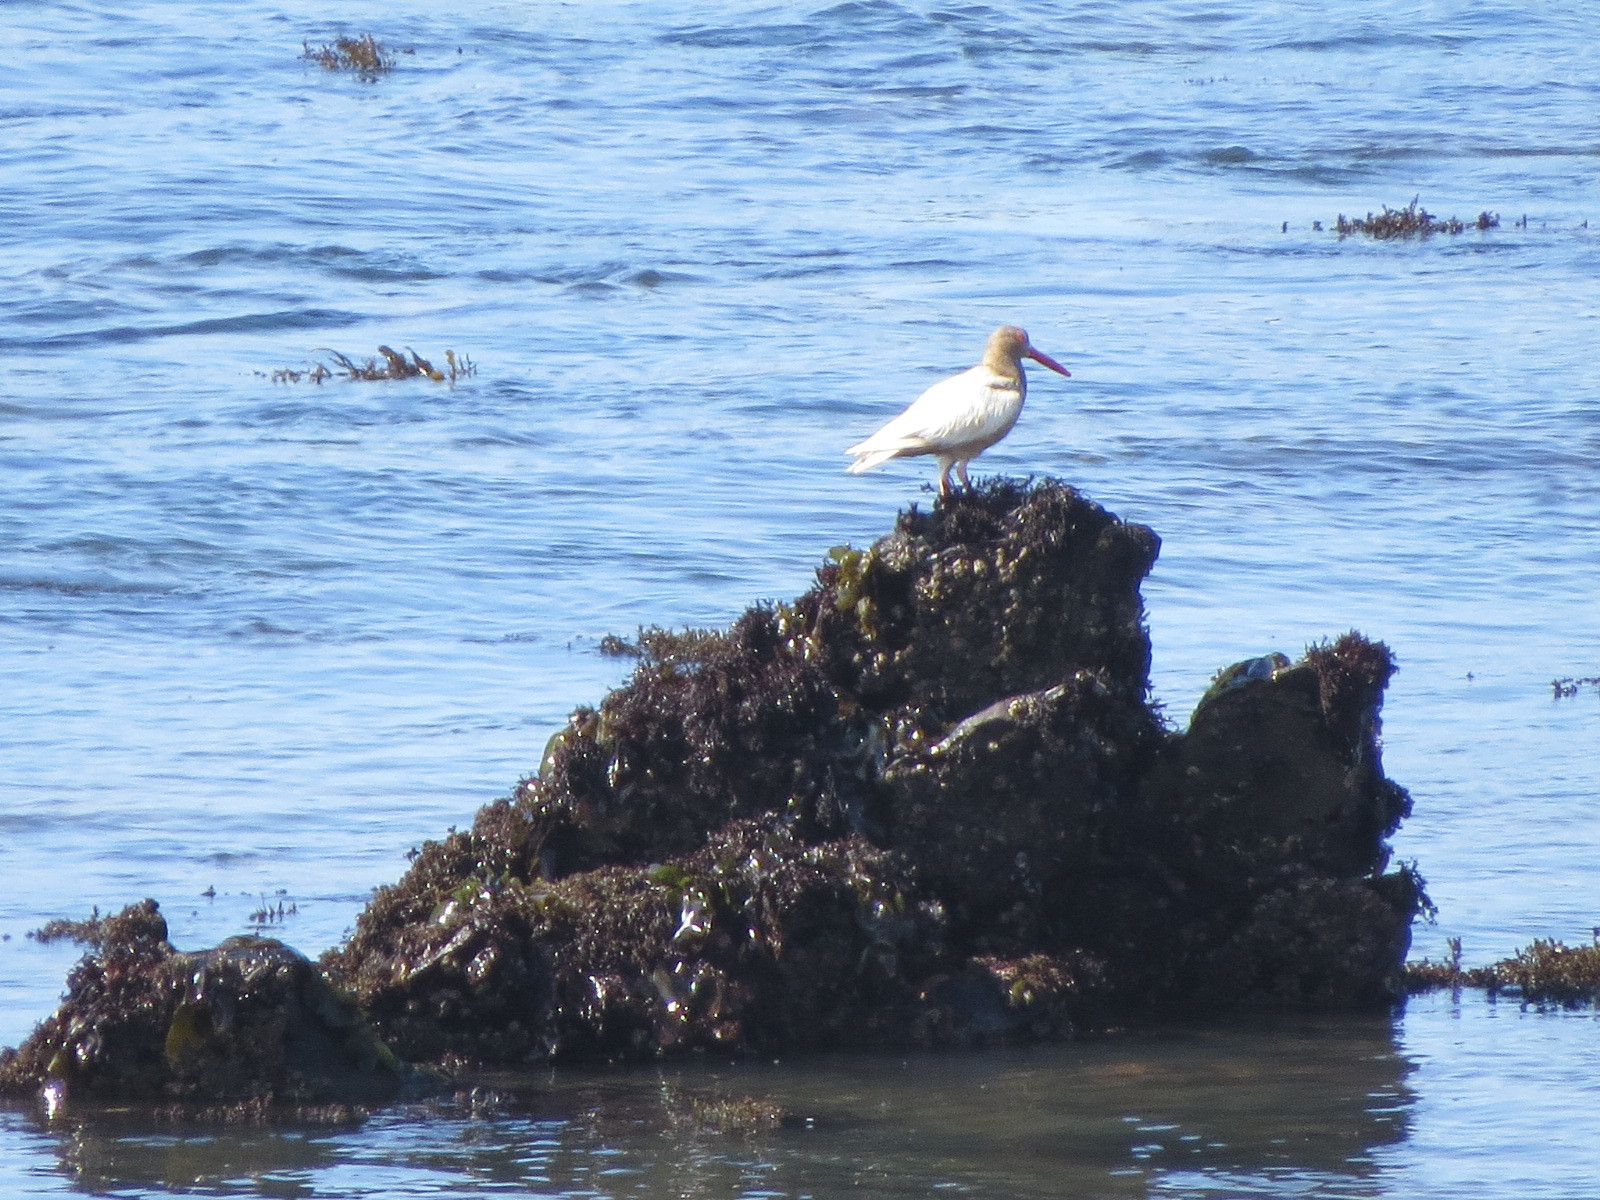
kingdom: Animalia
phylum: Chordata
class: Aves
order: Charadriiformes
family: Haematopodidae
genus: Haematopus
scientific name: Haematopus bachmani
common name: Black oystercatcher
